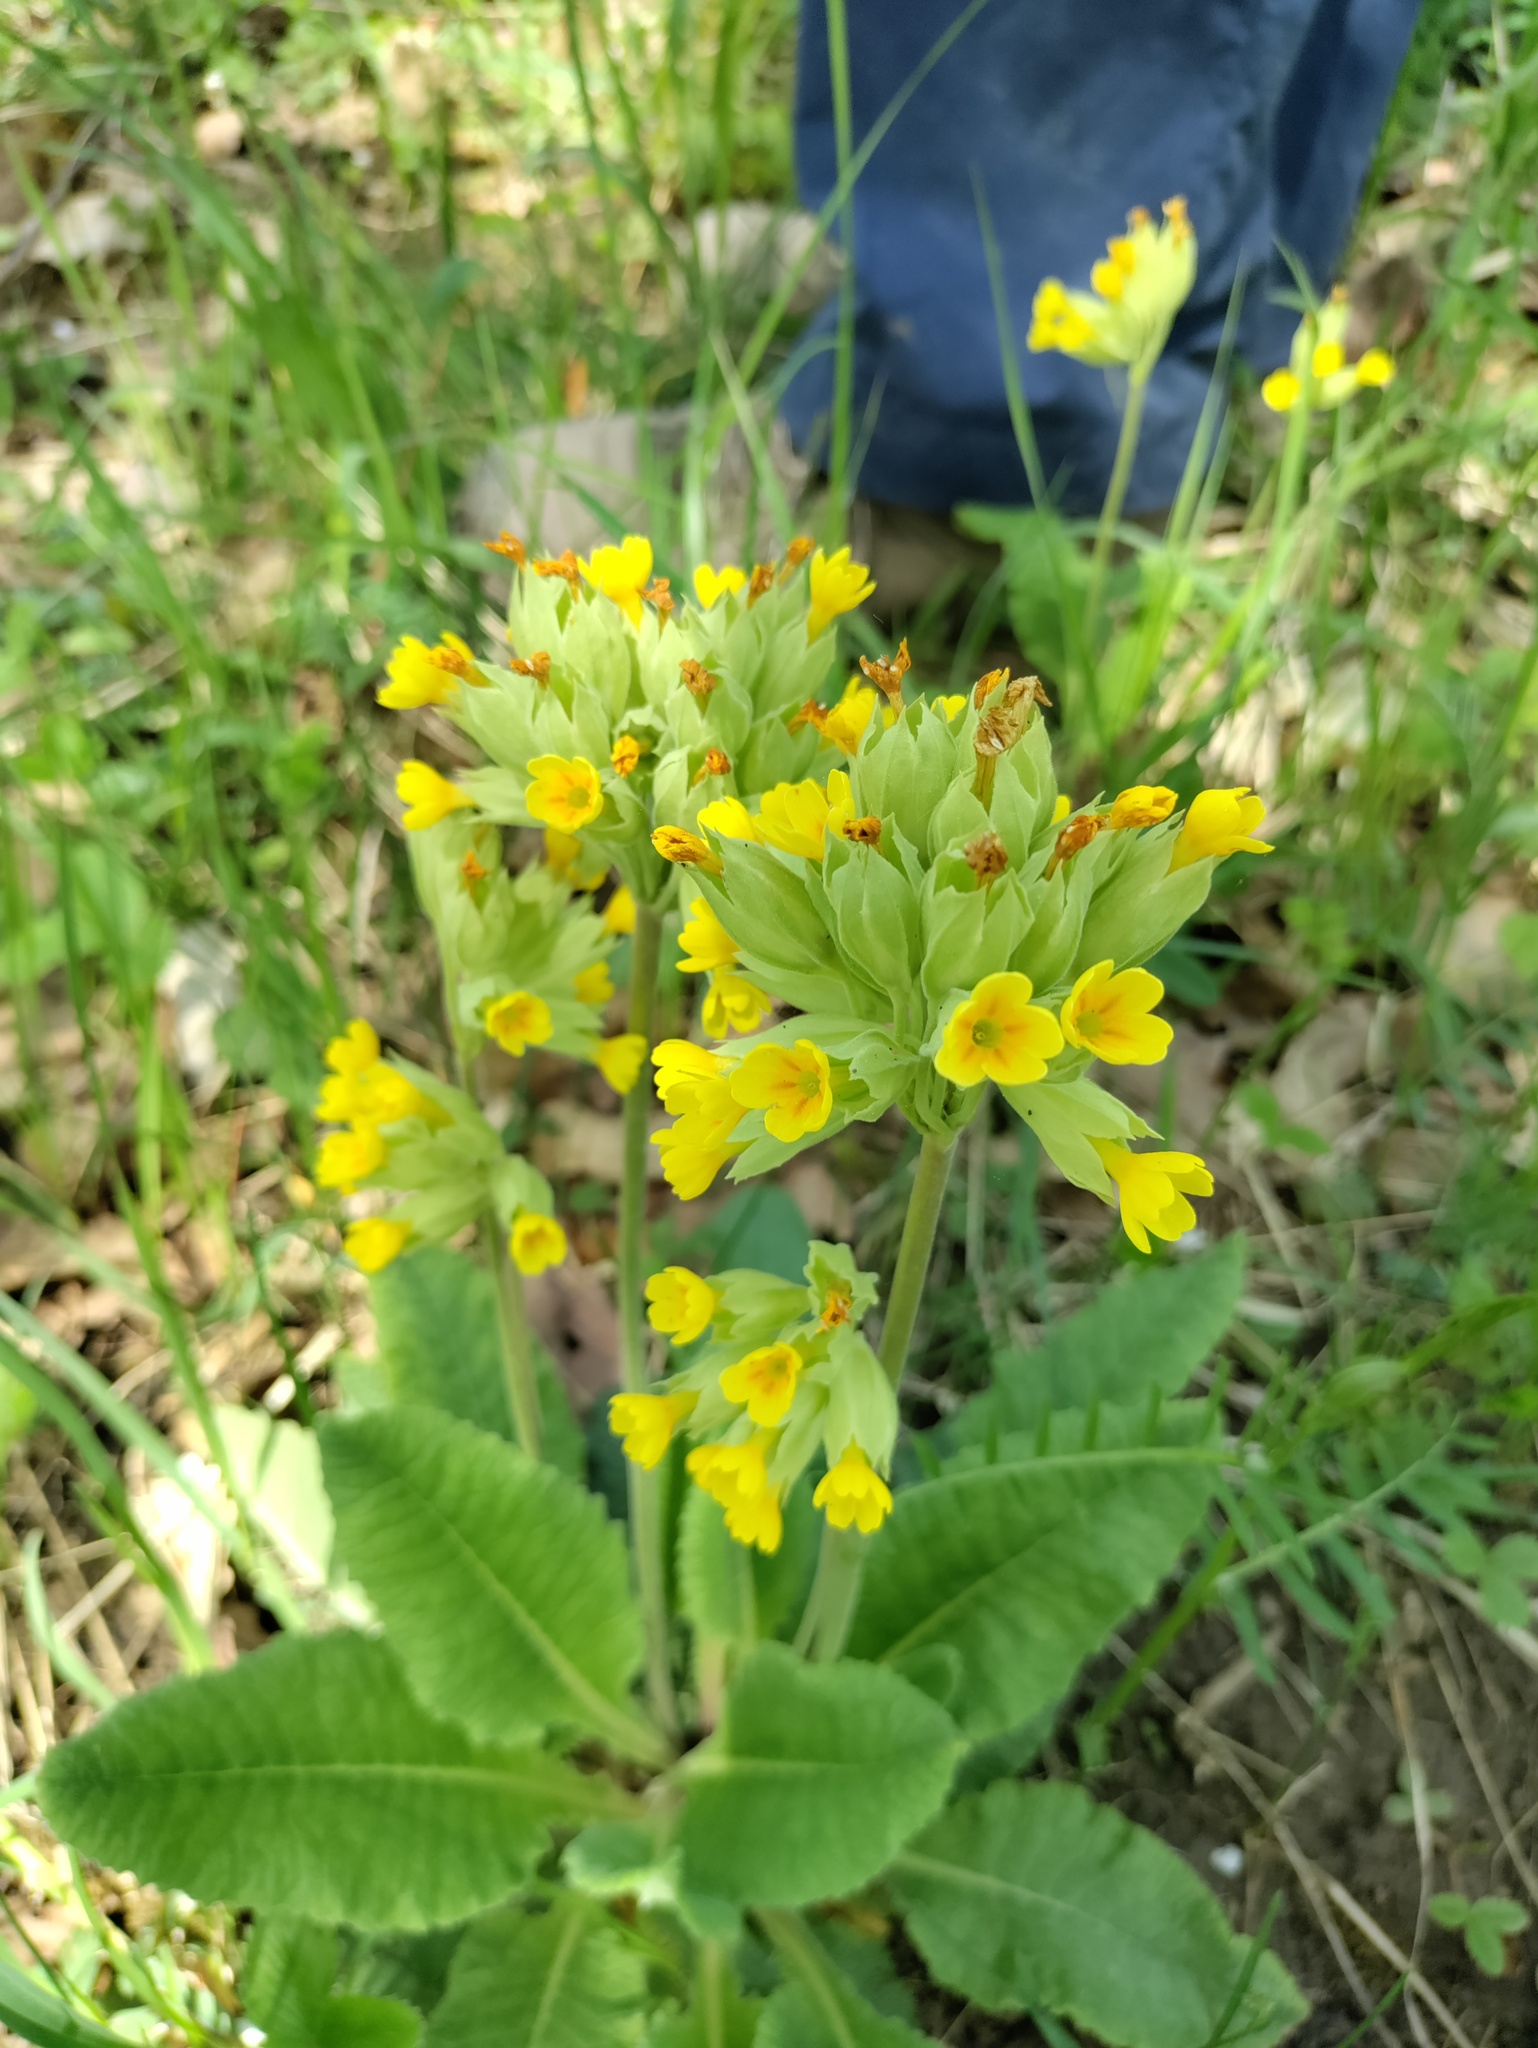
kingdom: Plantae
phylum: Tracheophyta
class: Magnoliopsida
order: Ericales
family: Primulaceae
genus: Primula
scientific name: Primula veris
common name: Cowslip
